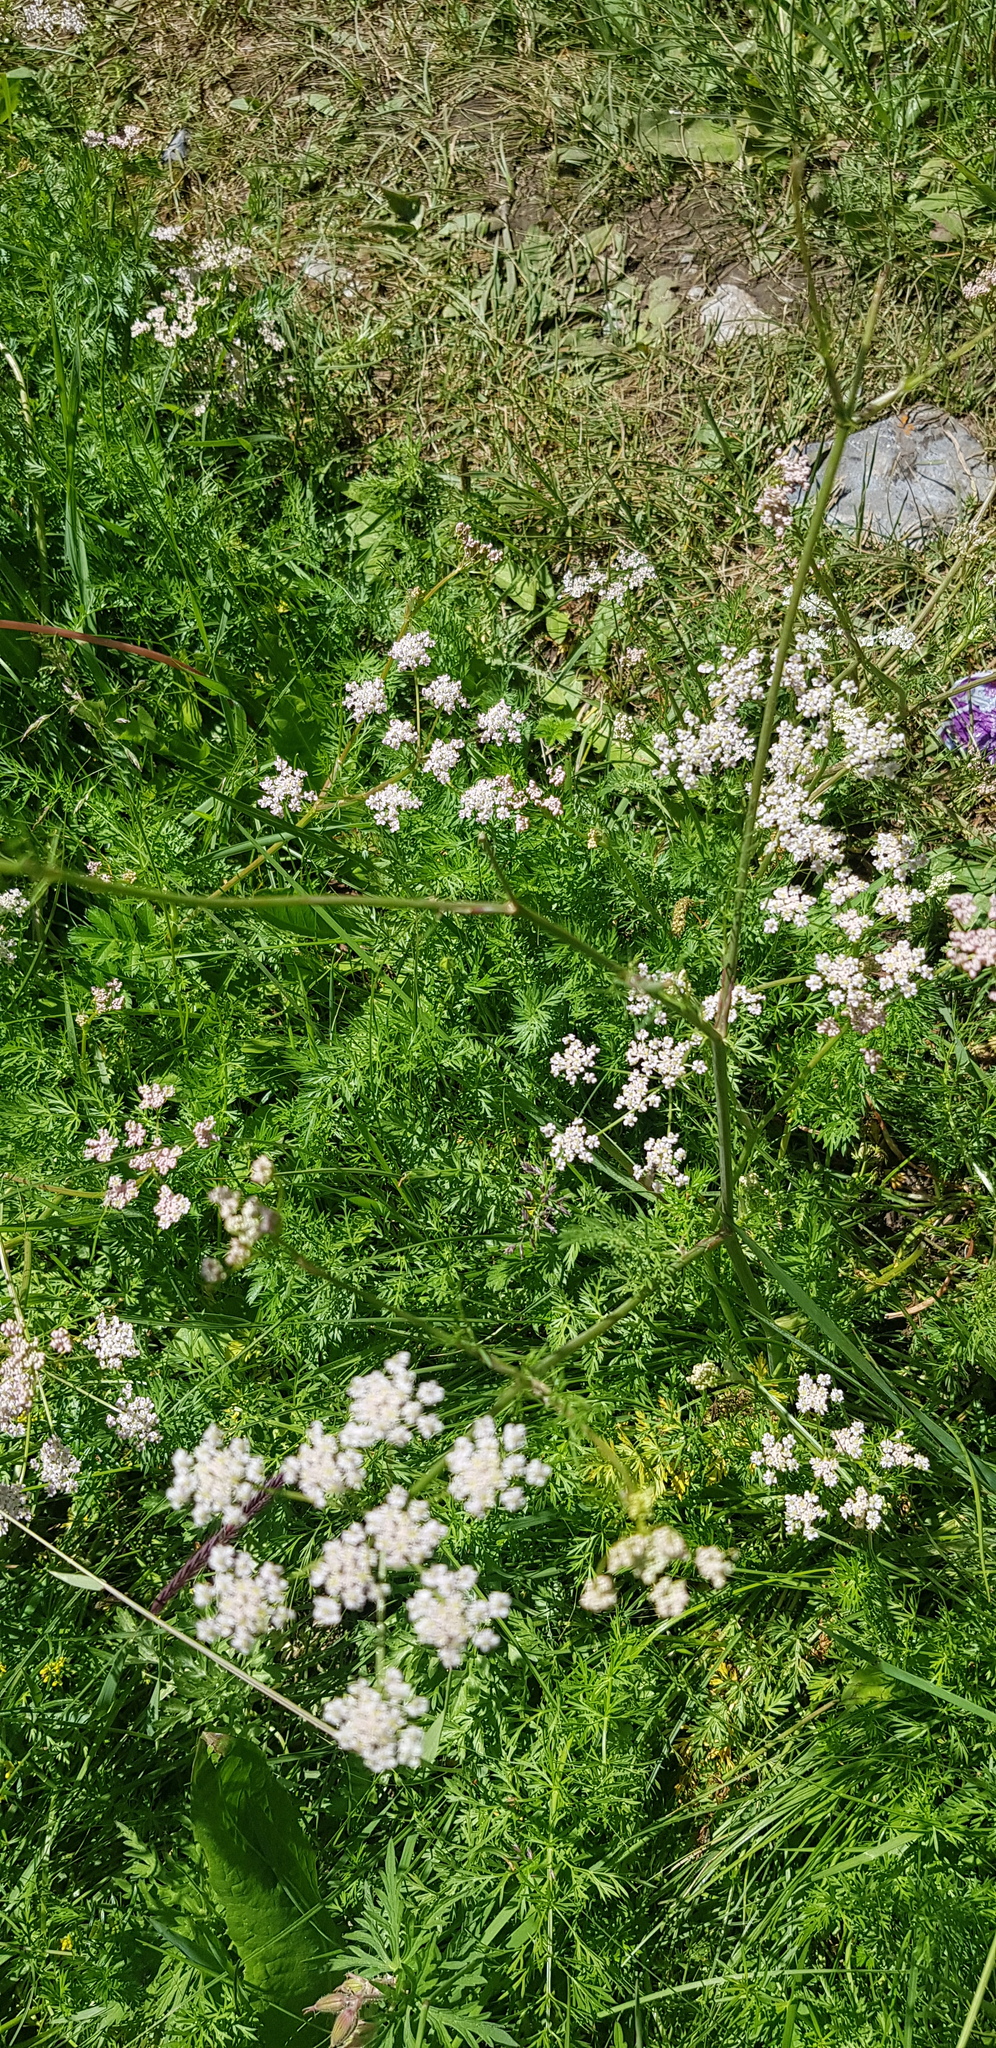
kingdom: Plantae
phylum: Tracheophyta
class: Magnoliopsida
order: Apiales
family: Apiaceae
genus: Carum
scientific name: Carum carvi
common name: Caraway
